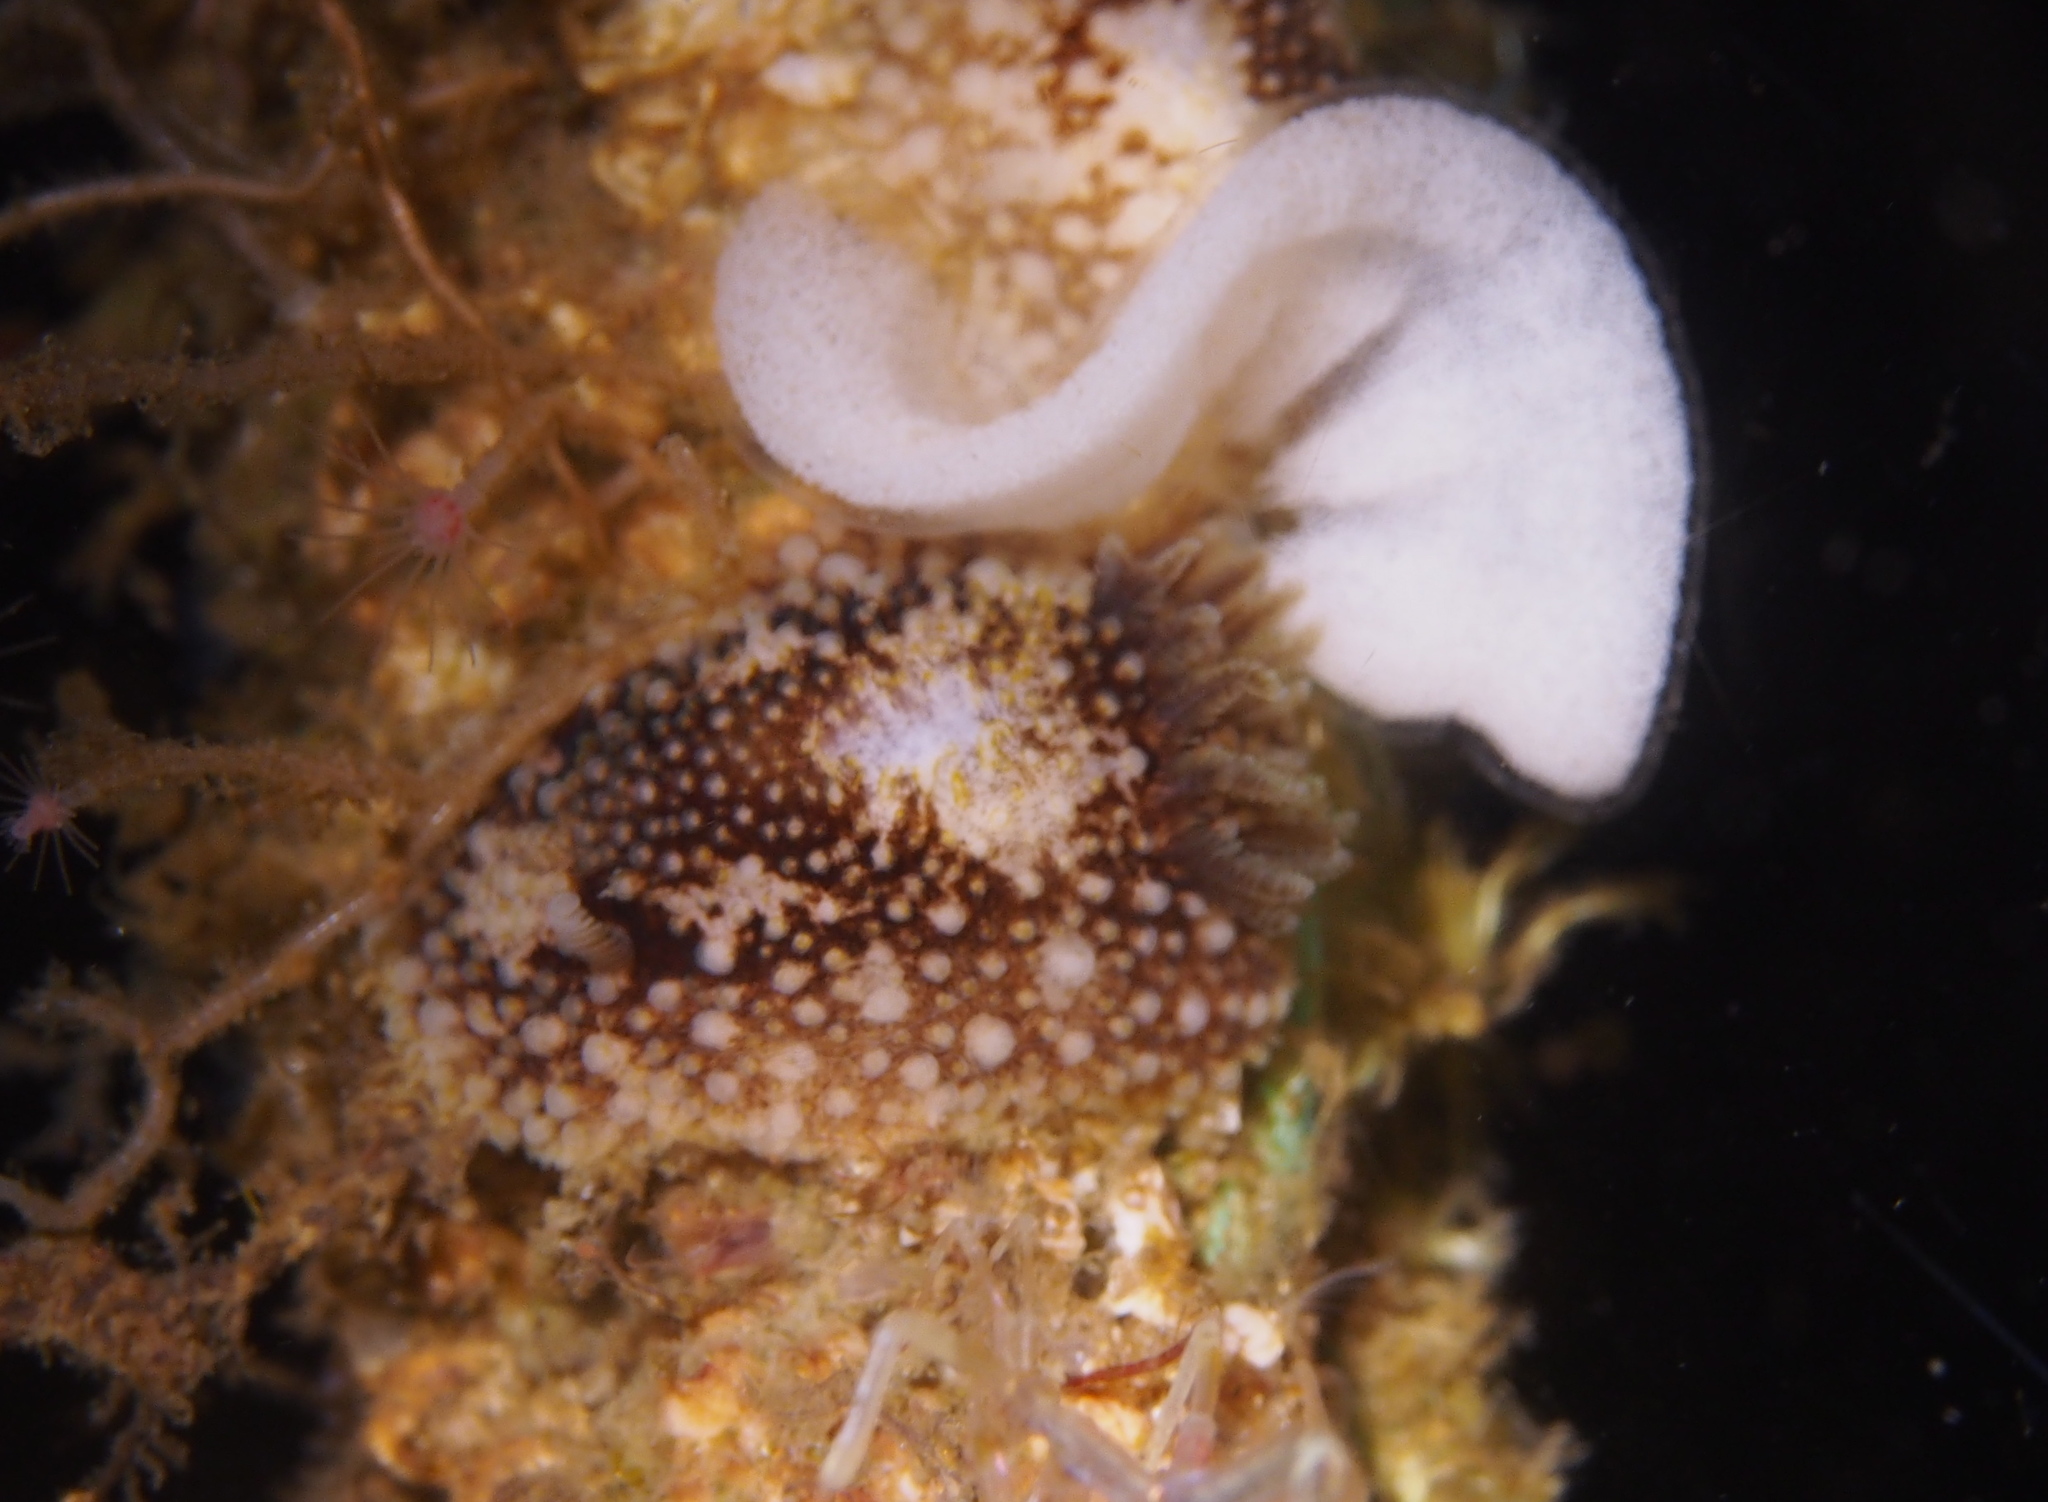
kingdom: Animalia
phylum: Mollusca
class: Gastropoda
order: Nudibranchia
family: Onchidorididae
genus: Onchidoris
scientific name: Onchidoris bilamellata
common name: Barnacle-eating onchidoris
